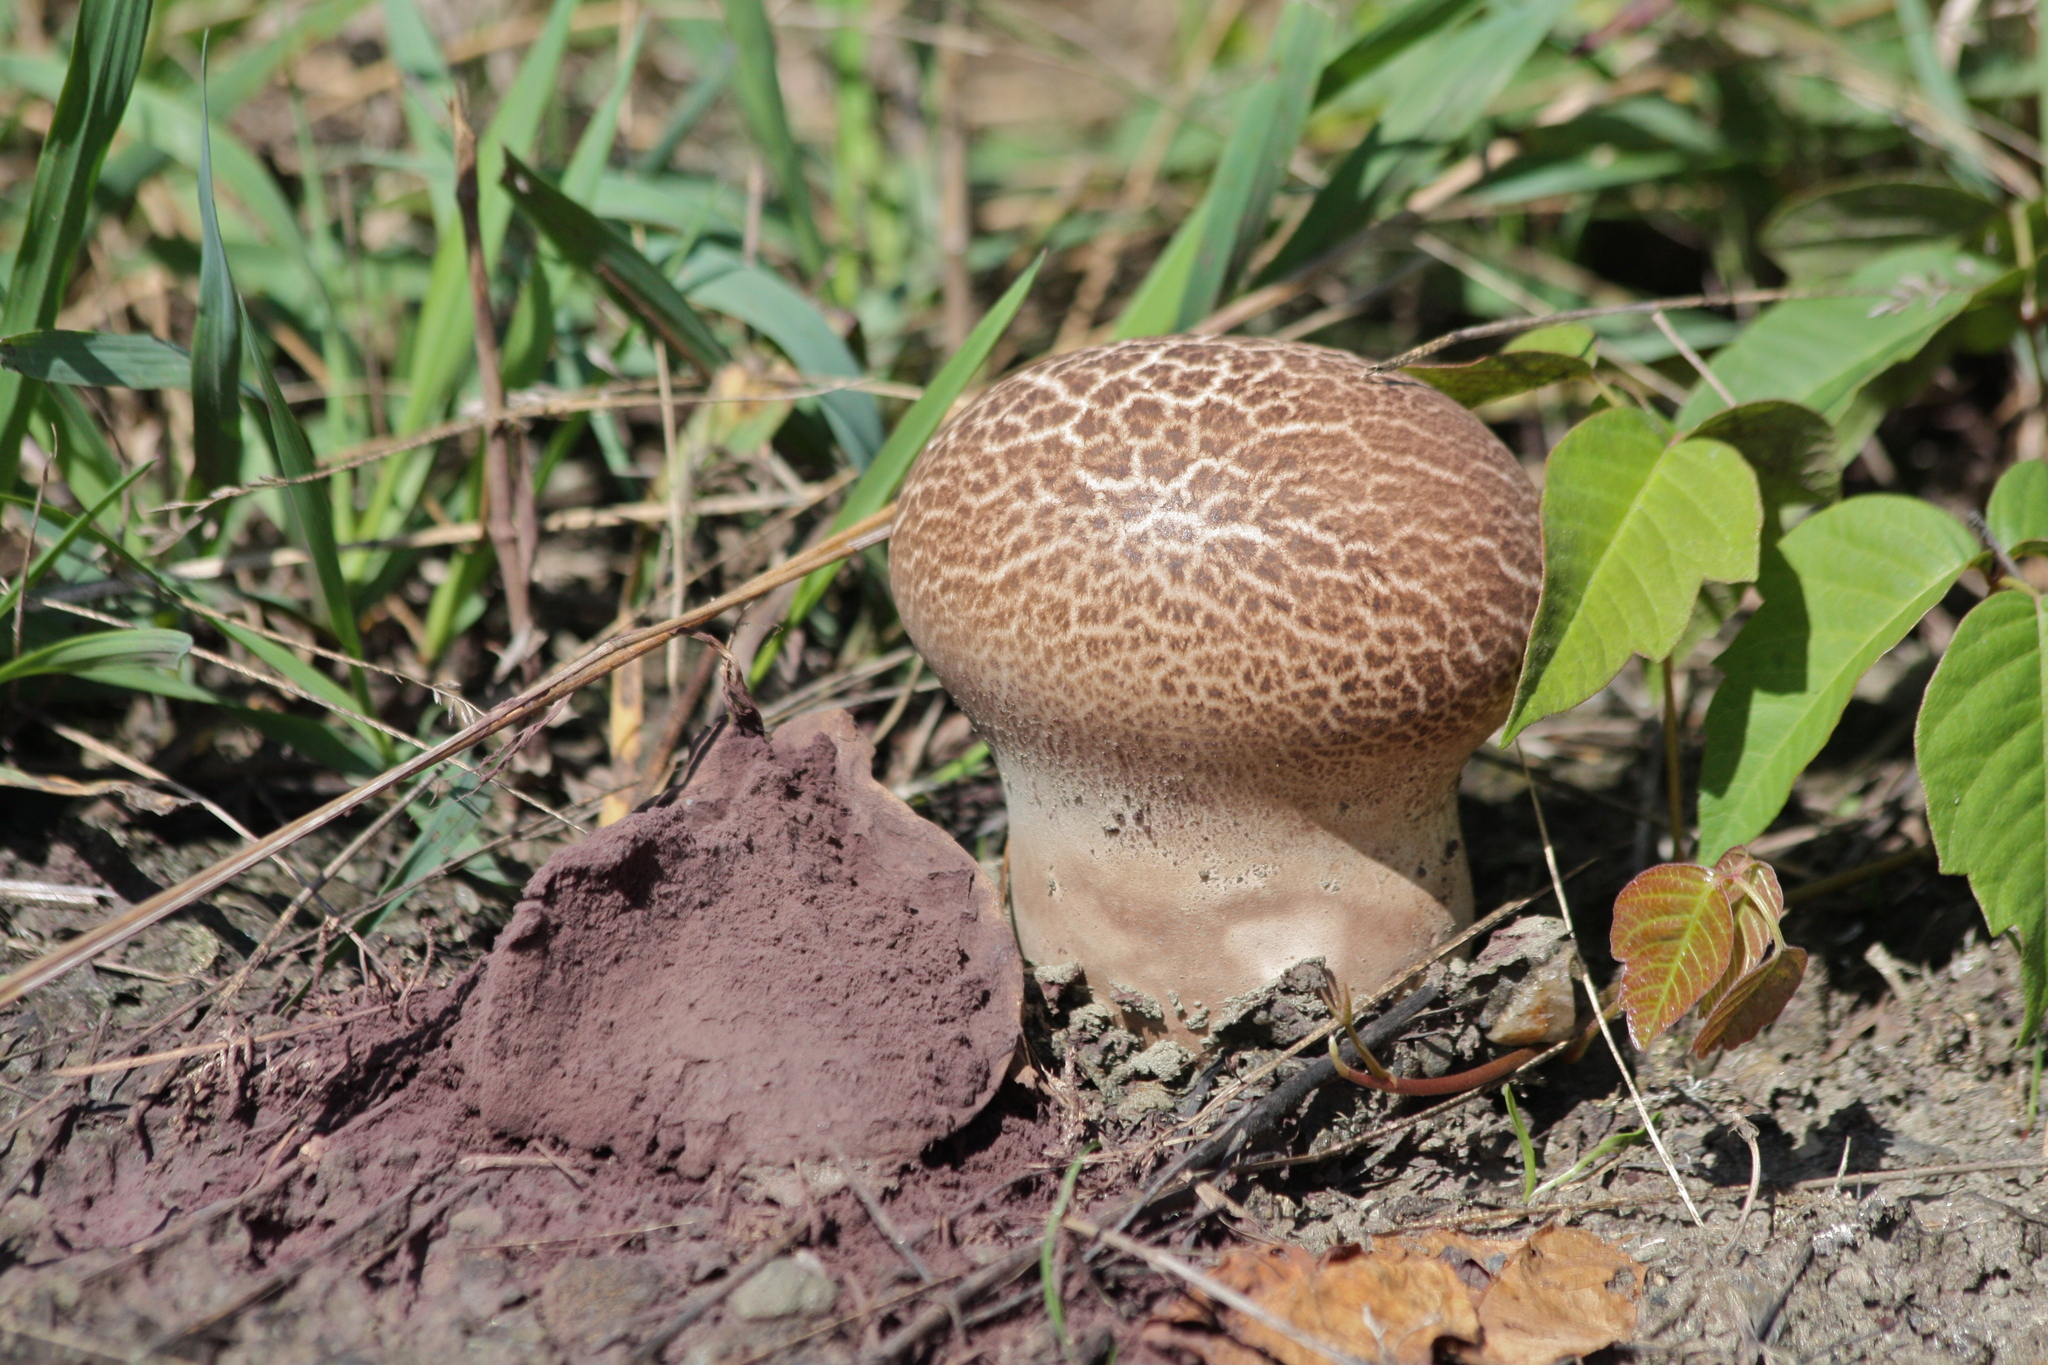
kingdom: Fungi
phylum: Basidiomycota
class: Agaricomycetes
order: Agaricales
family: Lycoperdaceae
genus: Calvatia
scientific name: Calvatia cyathiformis
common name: Purple-spored puffball
